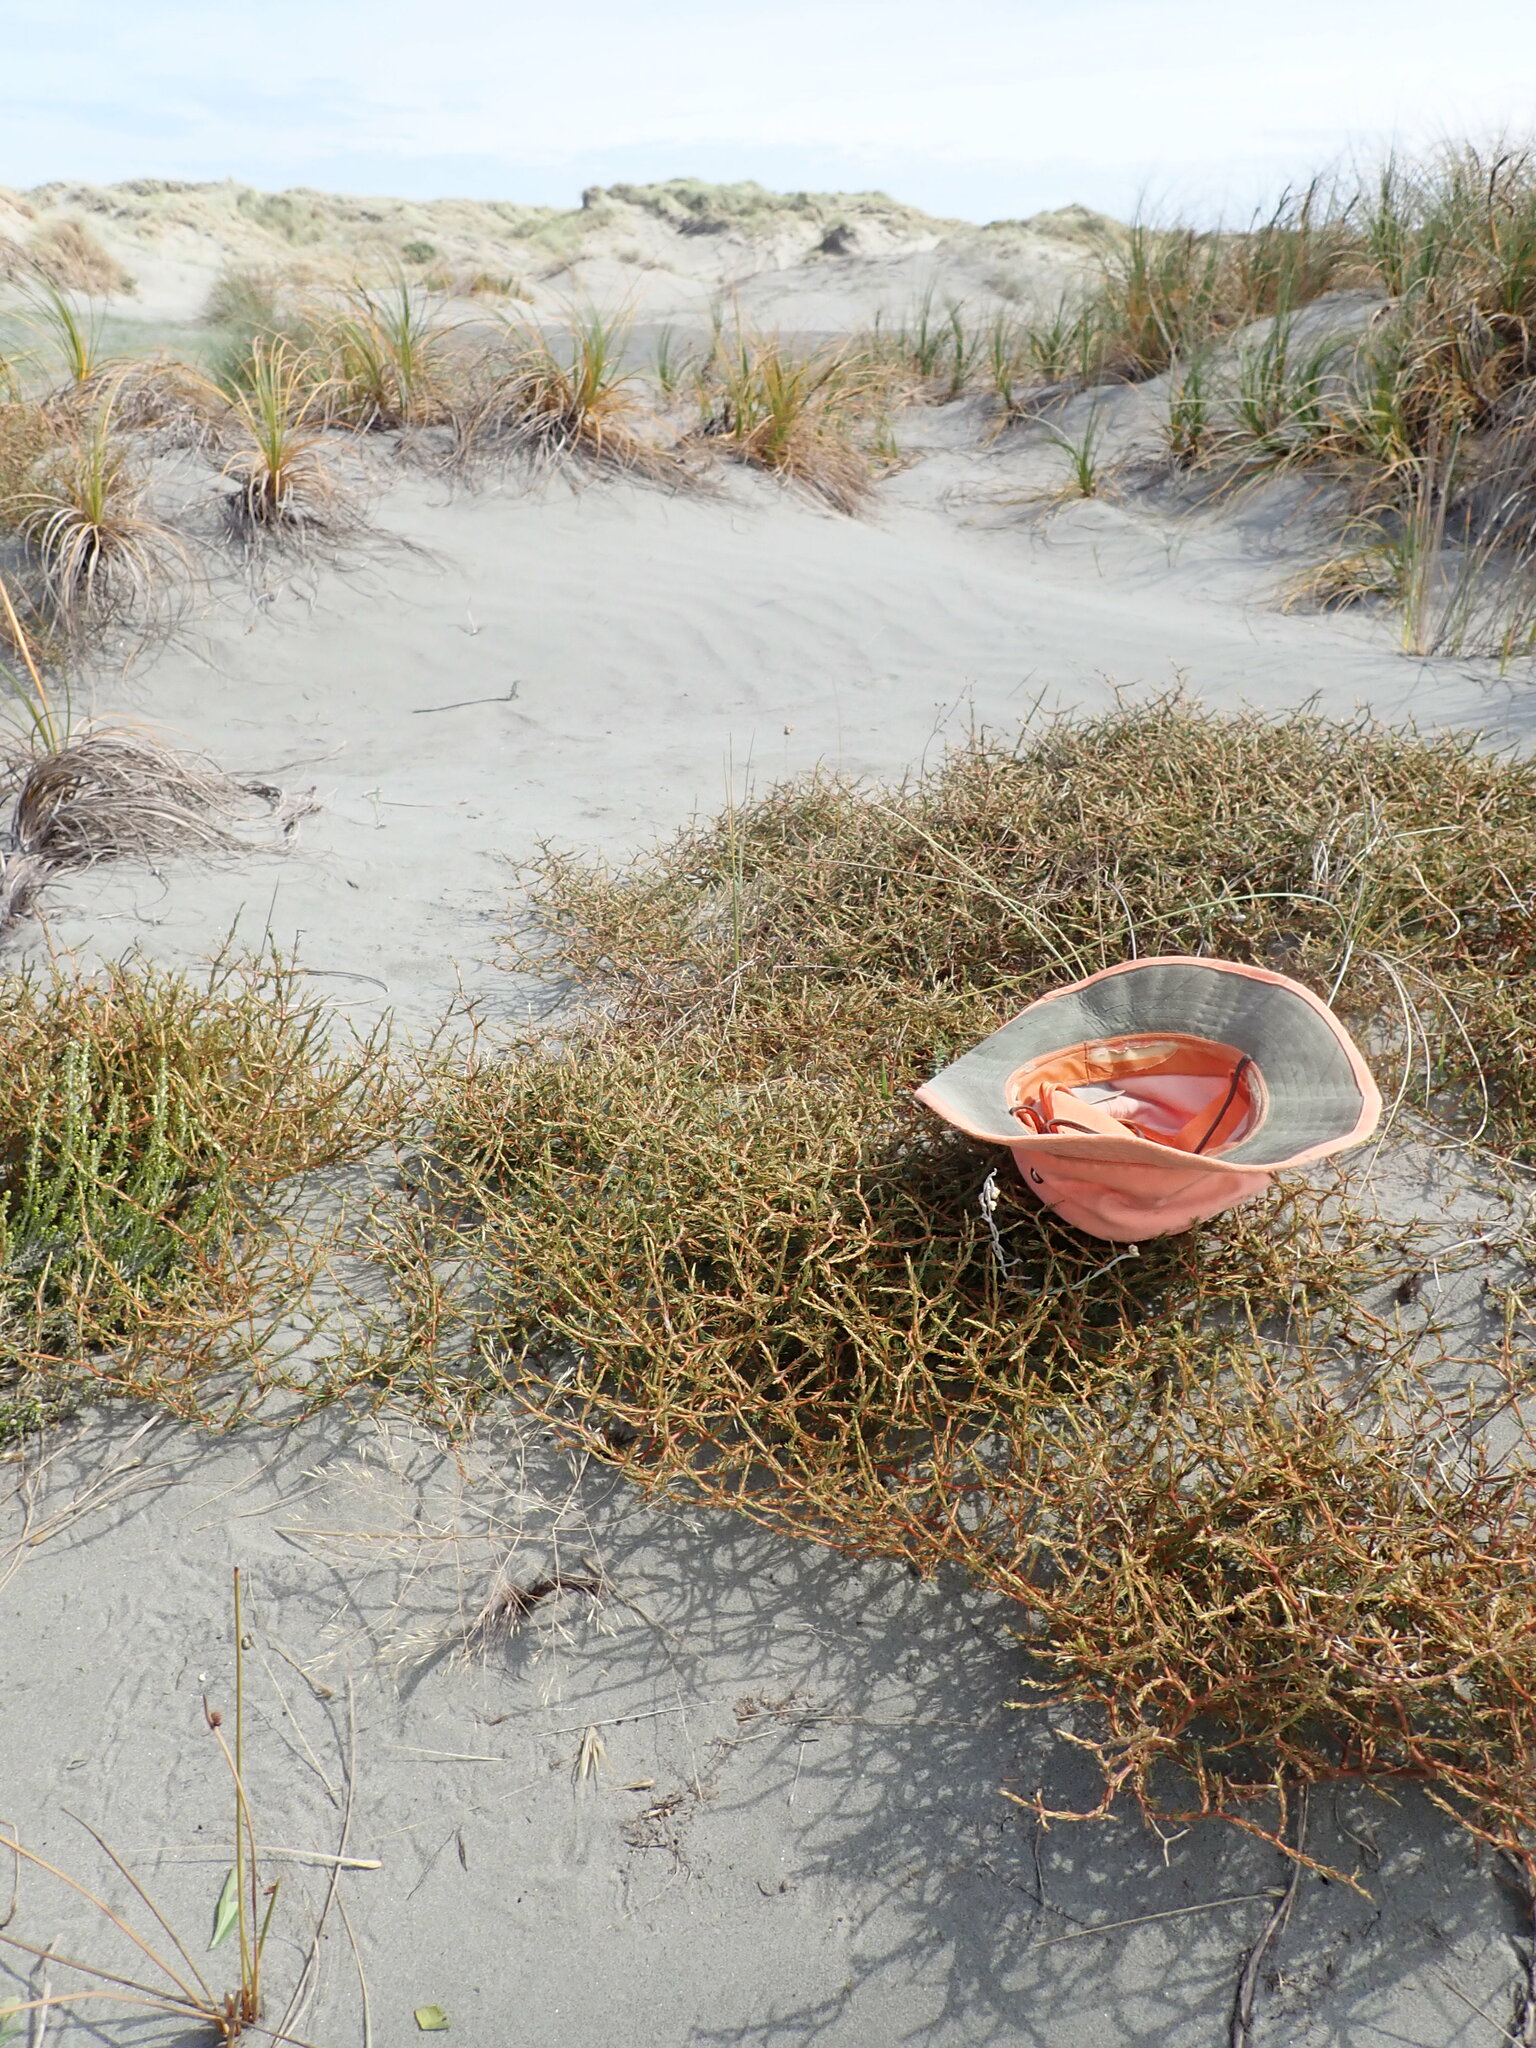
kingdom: Plantae
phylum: Tracheophyta
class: Magnoliopsida
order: Malvales
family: Thymelaeaceae
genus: Pimelea
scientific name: Pimelea villosa
